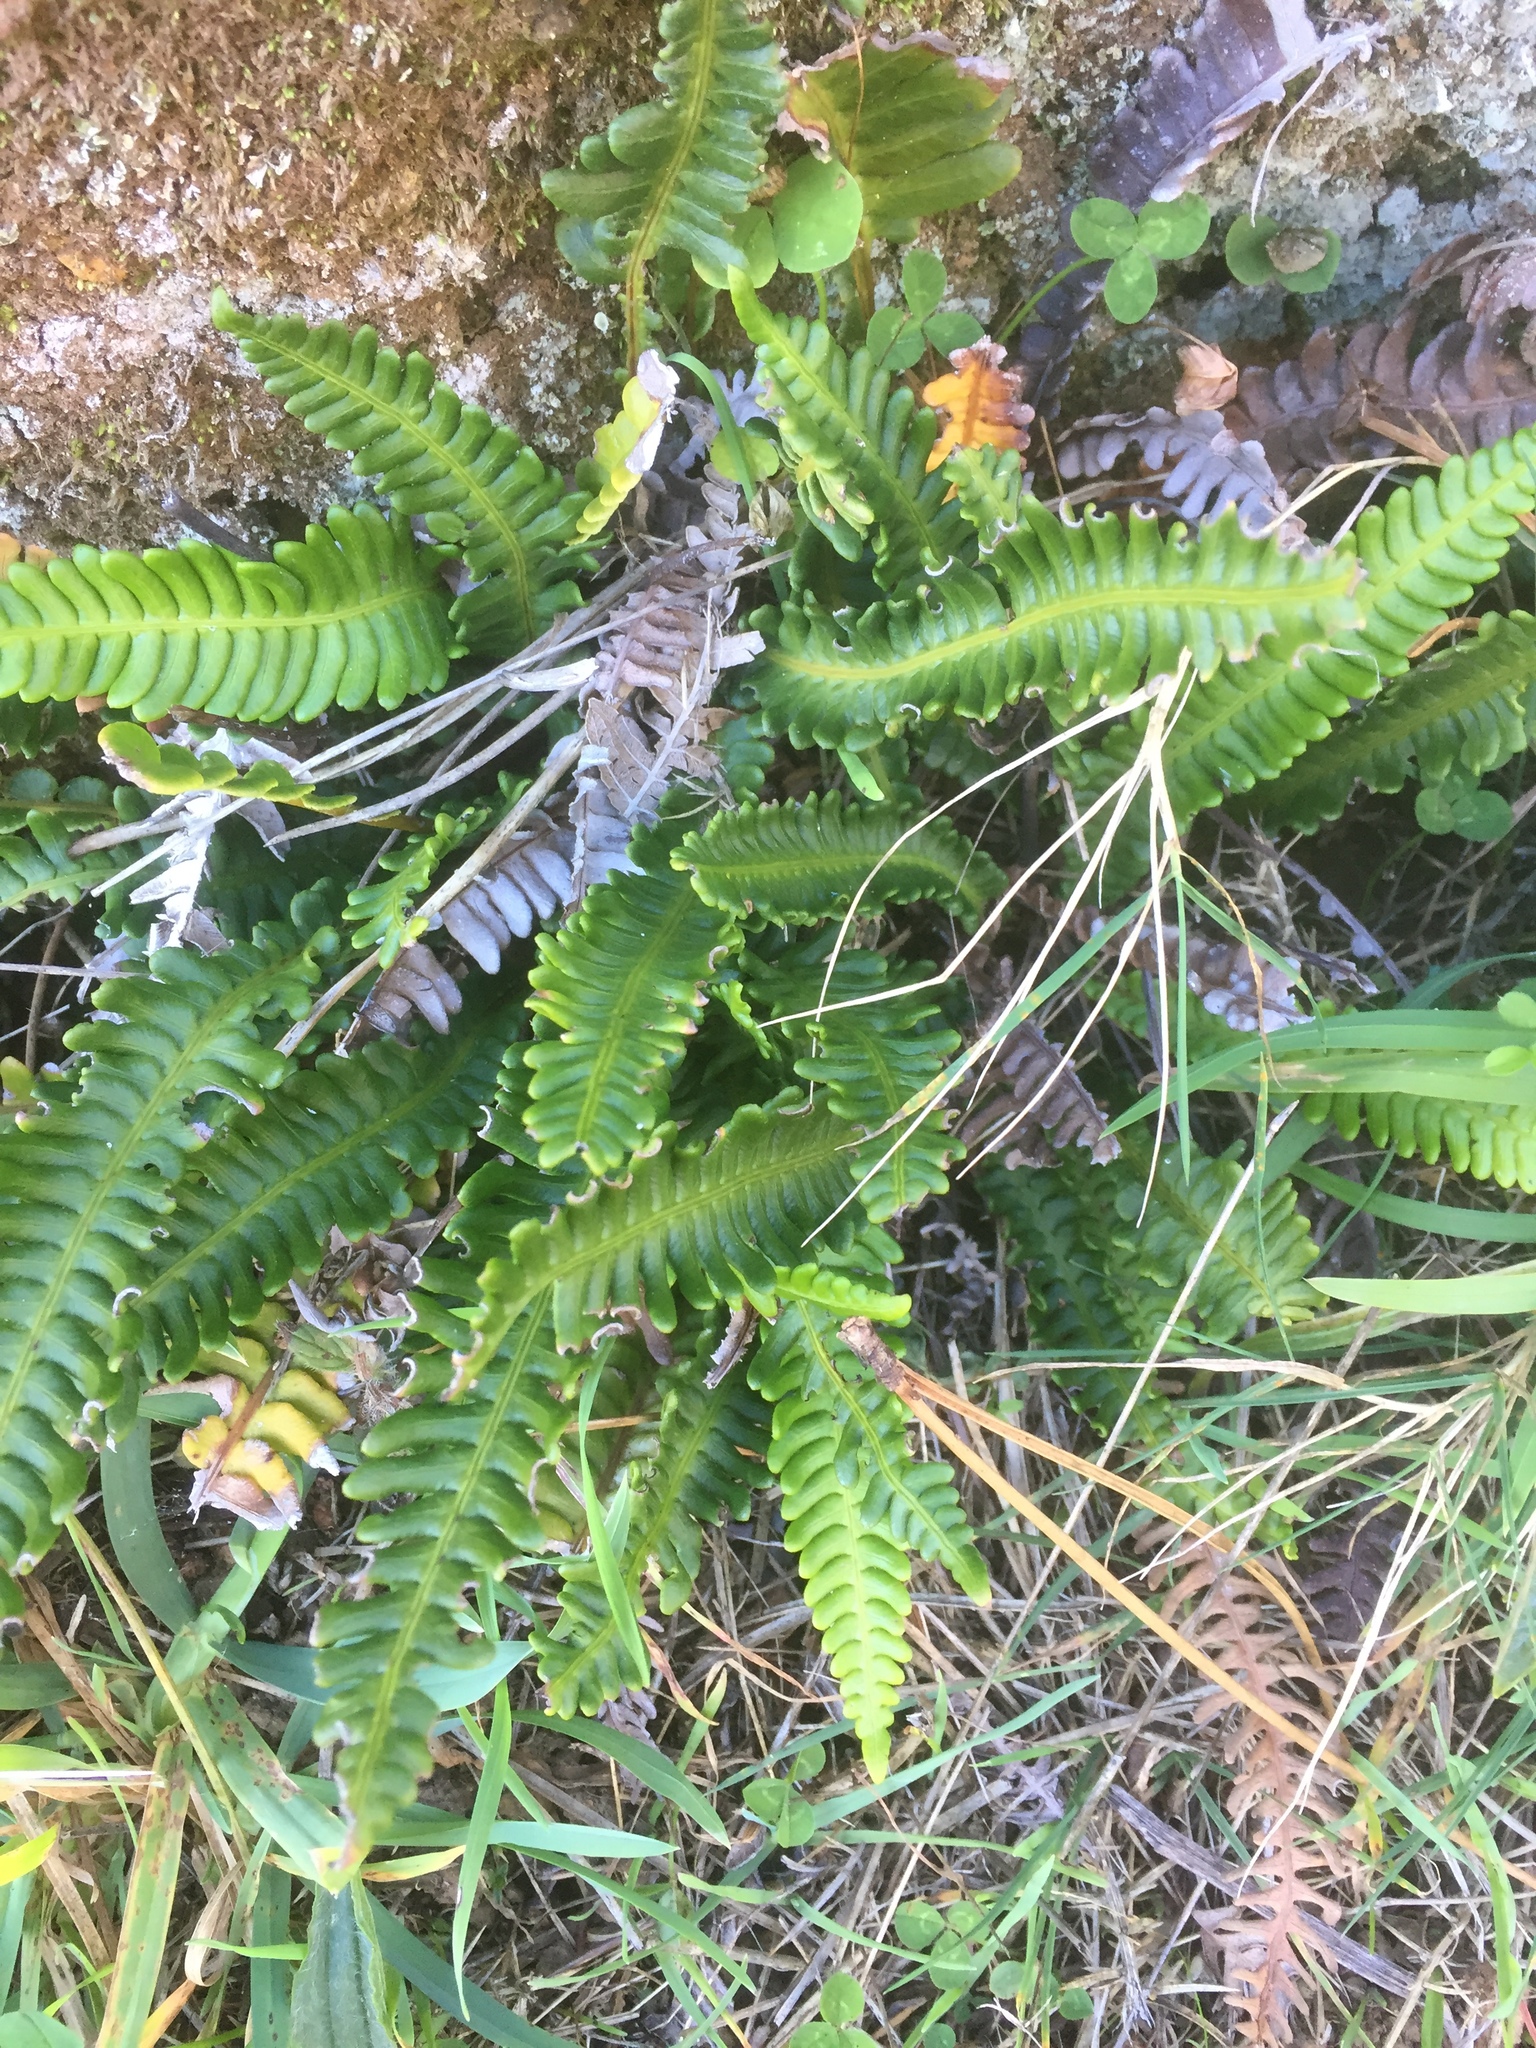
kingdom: Plantae
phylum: Tracheophyta
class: Polypodiopsida
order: Polypodiales
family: Blechnaceae
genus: Struthiopteris
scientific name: Struthiopteris spicant
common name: Deer fern
